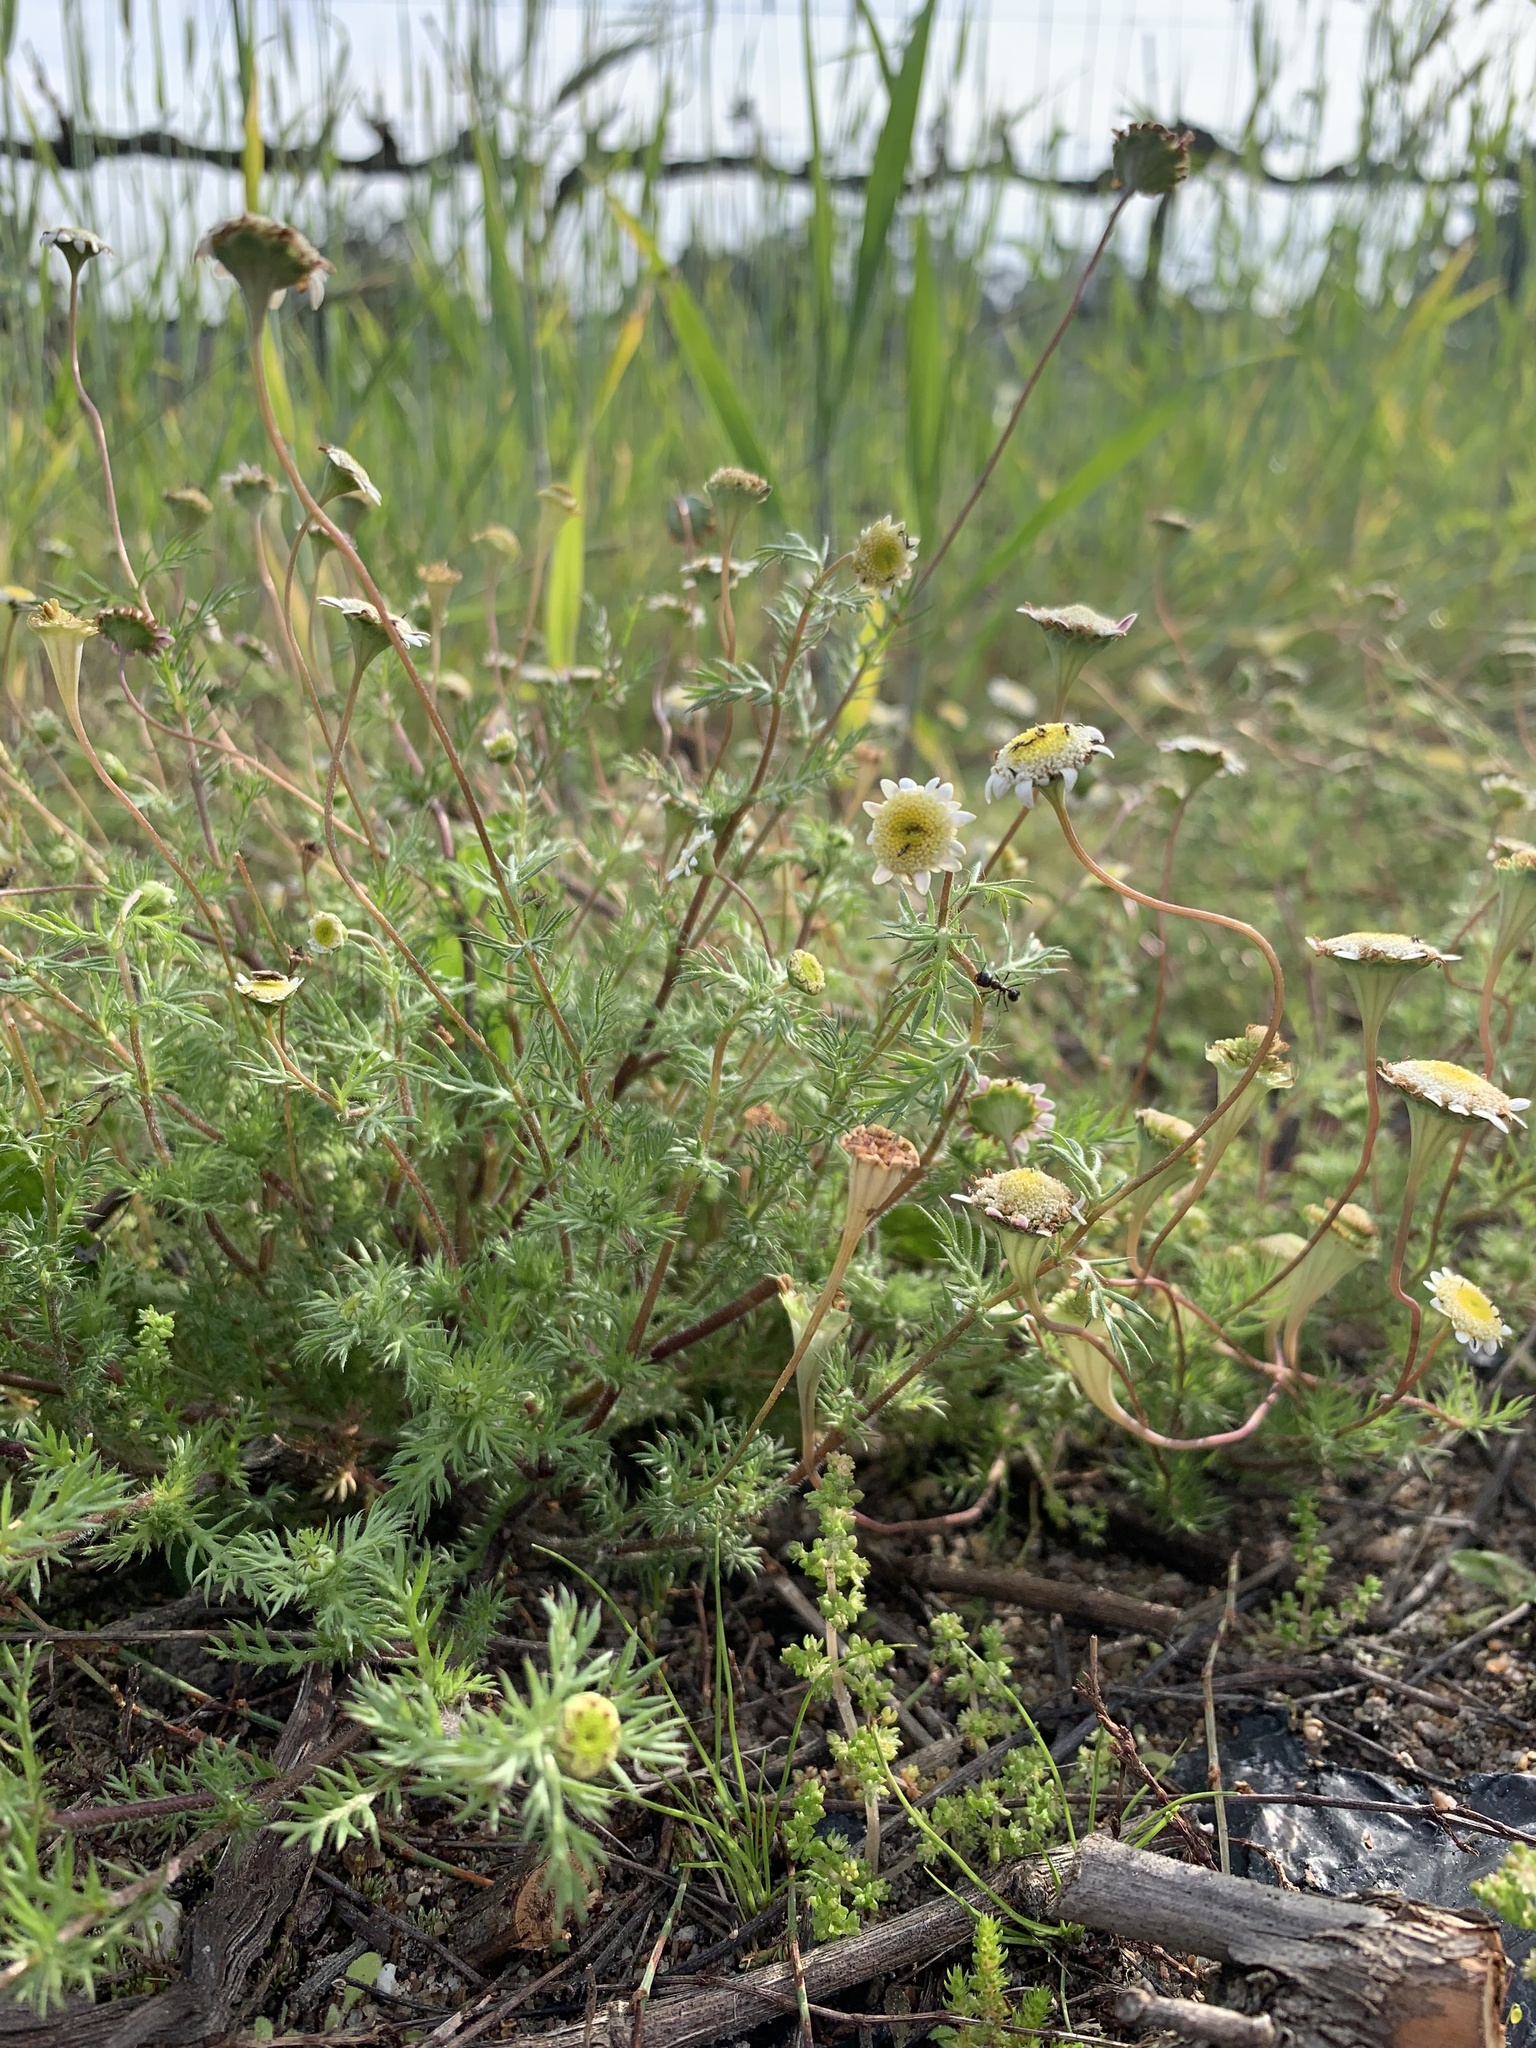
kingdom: Plantae
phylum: Tracheophyta
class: Magnoliopsida
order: Asterales
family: Asteraceae
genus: Cotula
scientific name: Cotula turbinata
